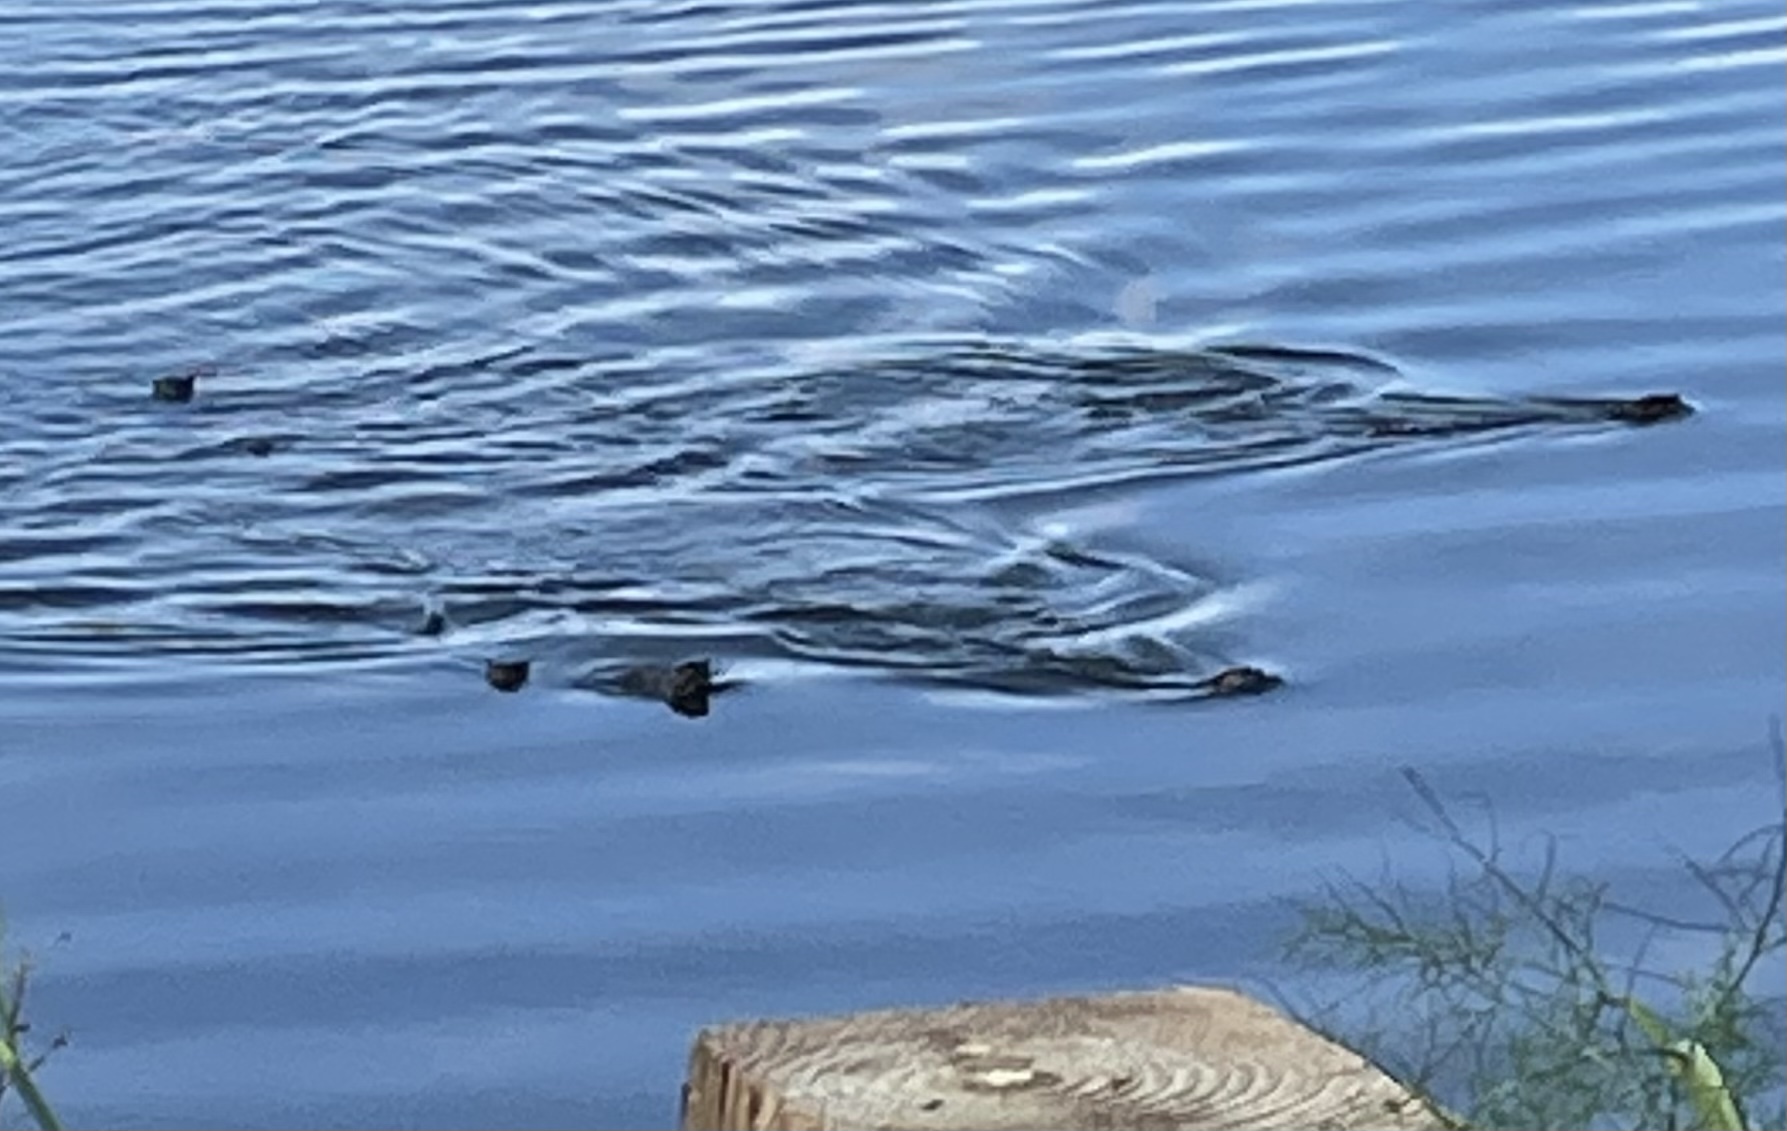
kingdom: Animalia
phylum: Chordata
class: Mammalia
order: Carnivora
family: Mustelidae
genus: Lontra
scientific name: Lontra canadensis
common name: North american river otter
